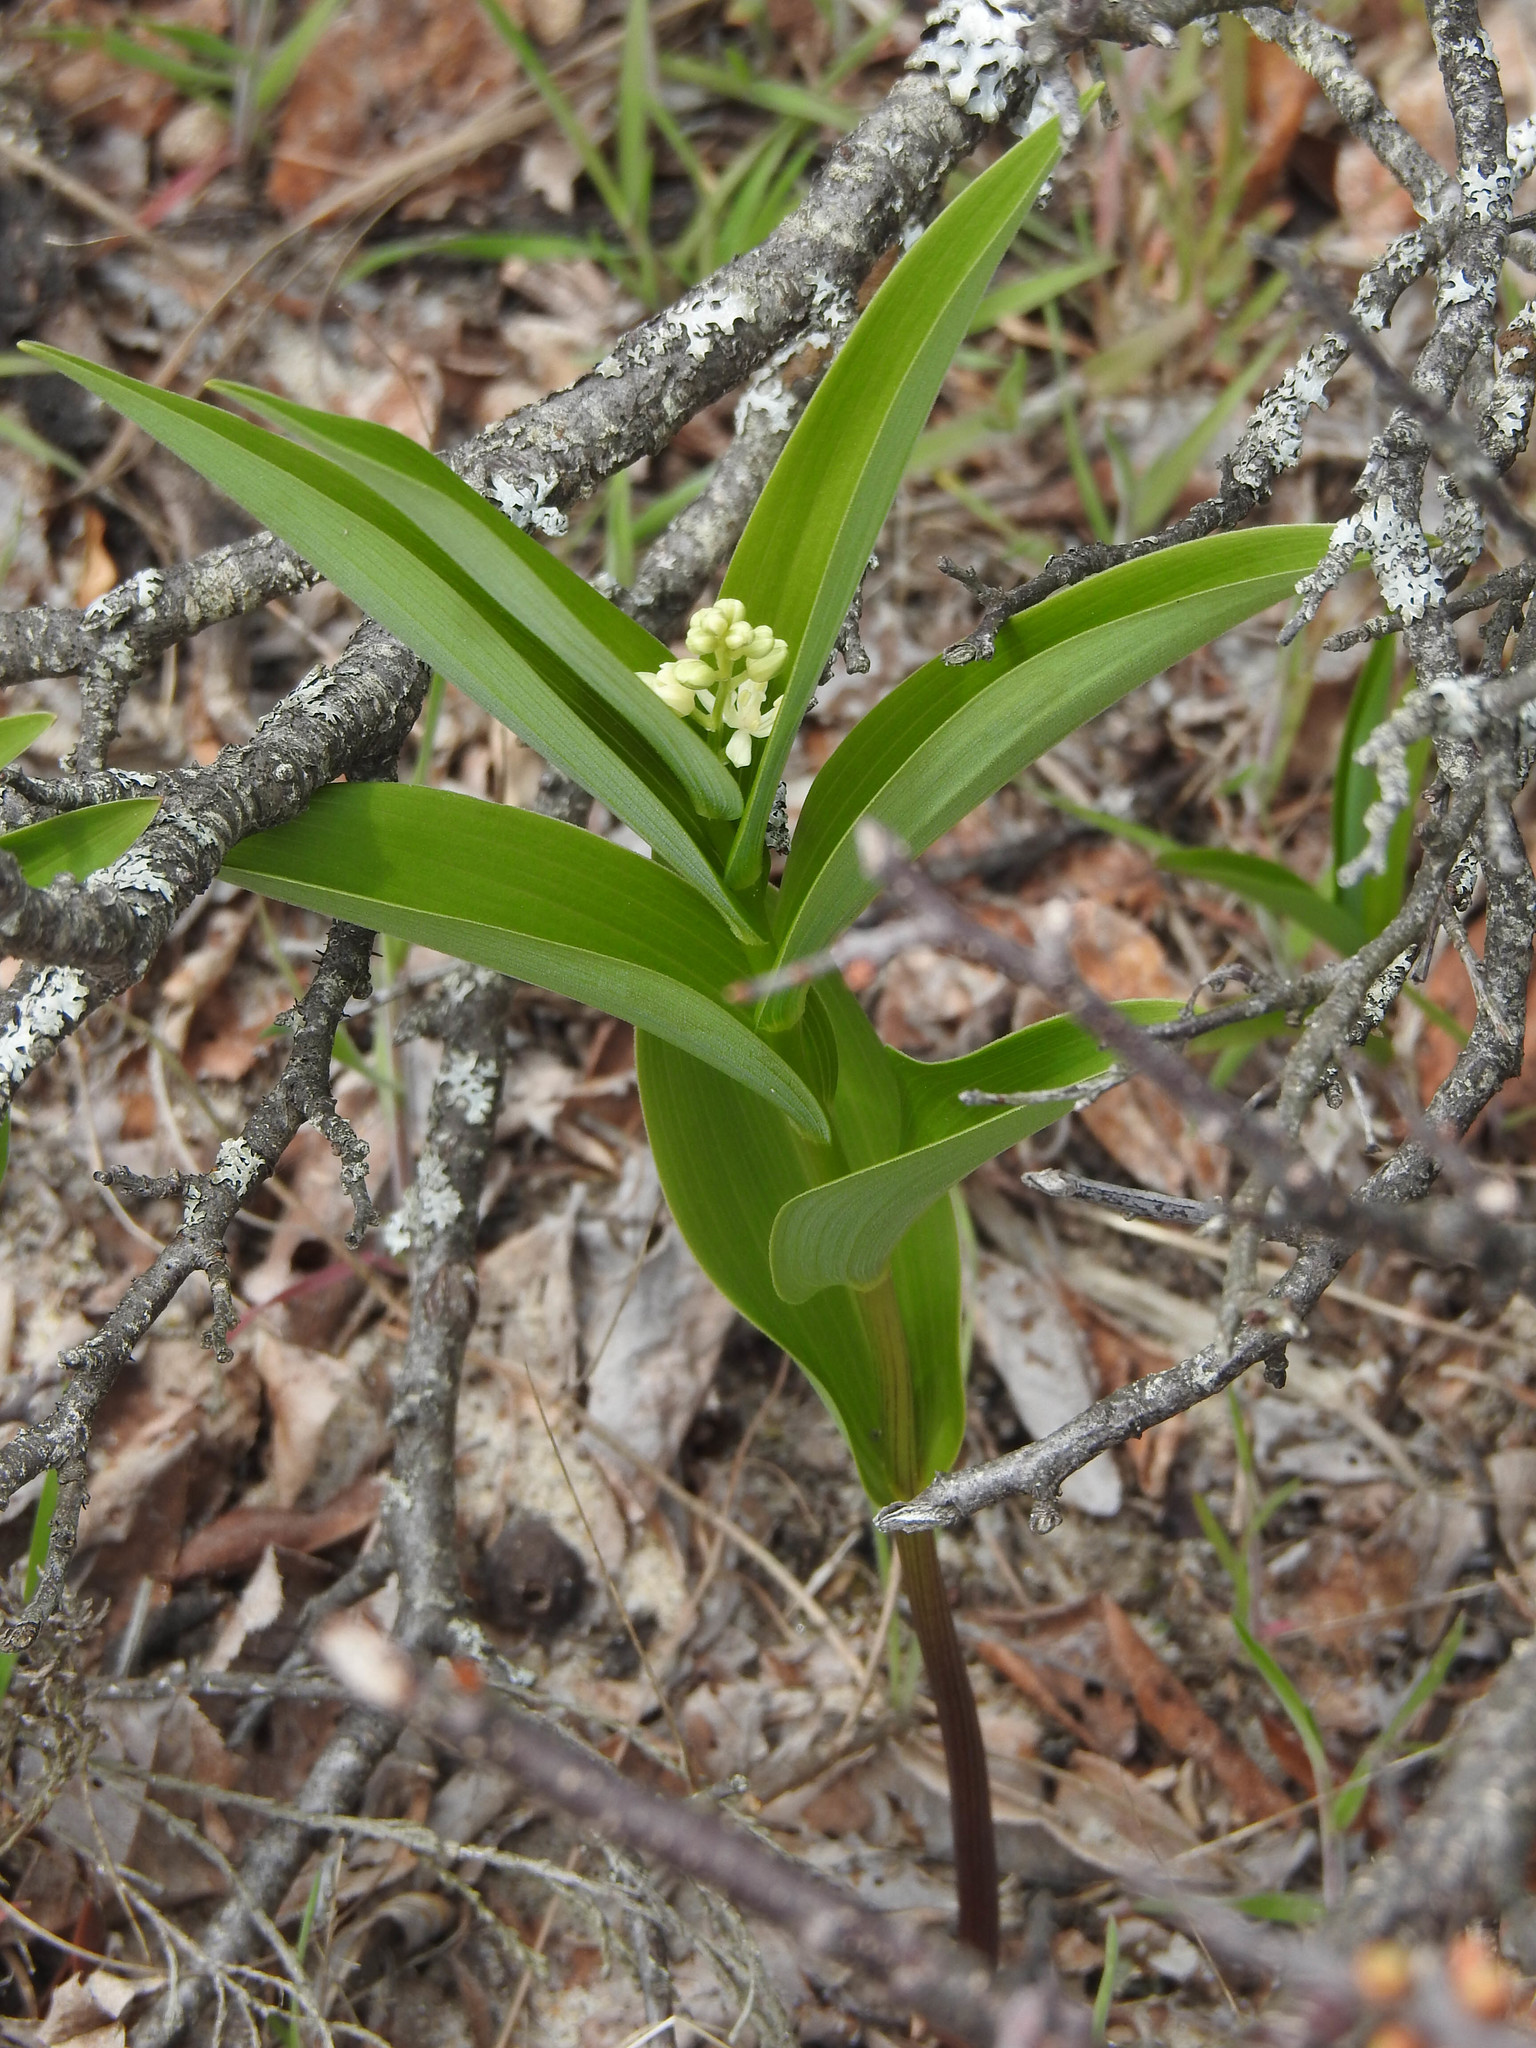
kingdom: Plantae
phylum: Tracheophyta
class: Liliopsida
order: Asparagales
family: Asparagaceae
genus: Maianthemum
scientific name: Maianthemum stellatum
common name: Little false solomon's seal
